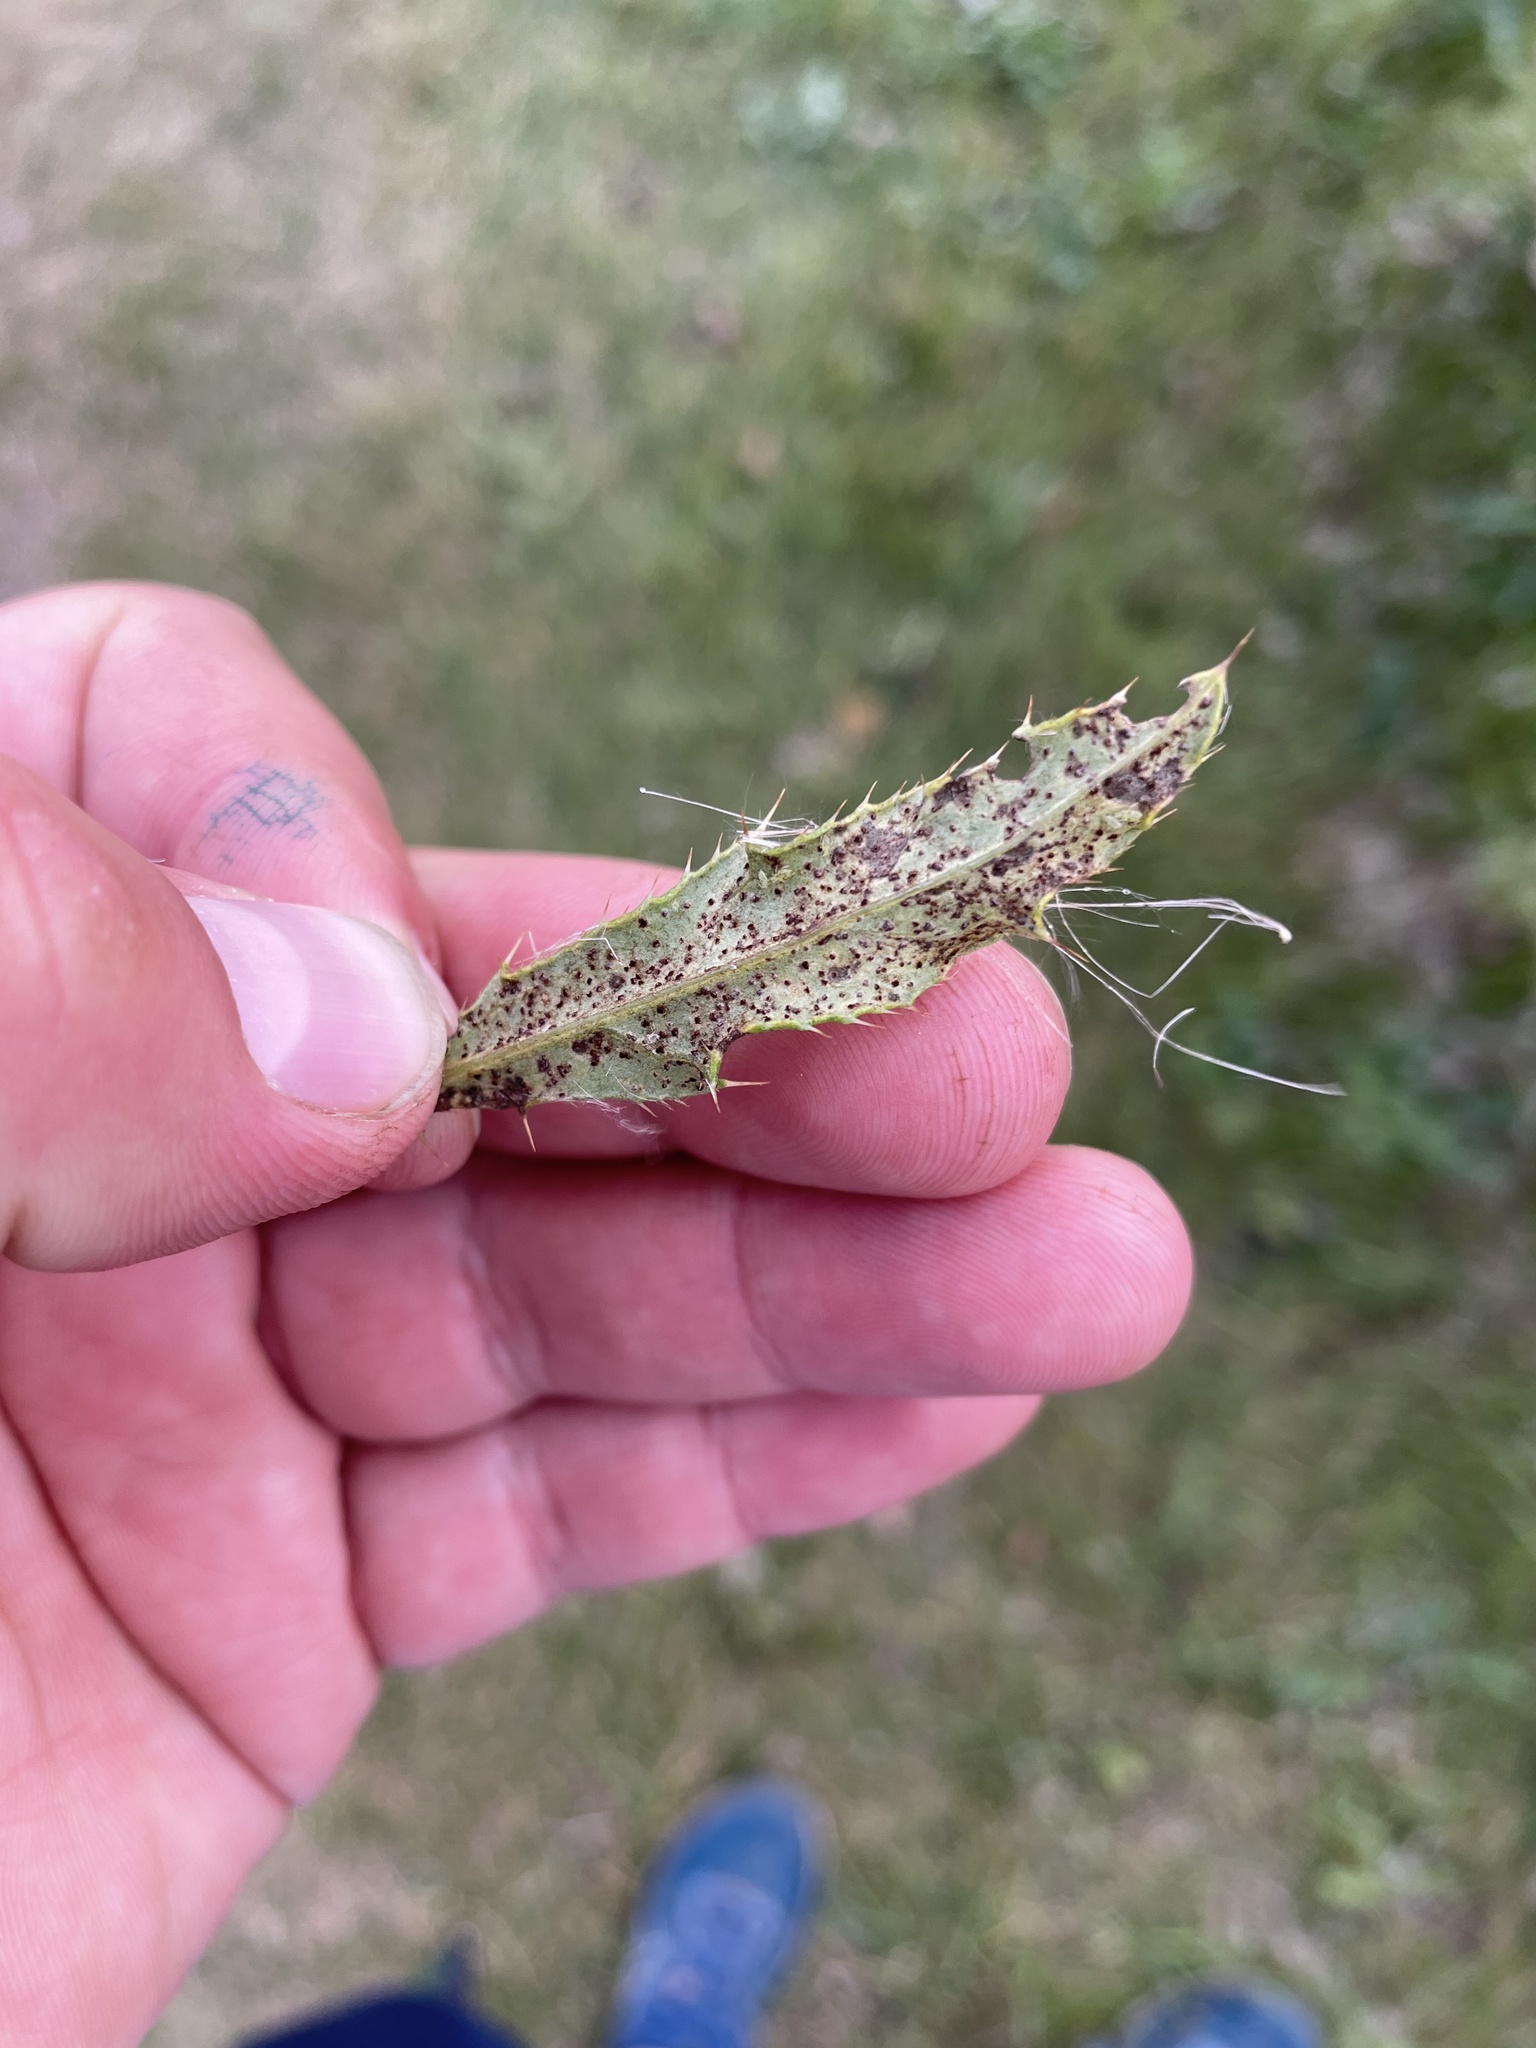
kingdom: Fungi
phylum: Basidiomycota
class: Pucciniomycetes
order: Pucciniales
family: Pucciniaceae
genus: Puccinia
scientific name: Puccinia suaveolens
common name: Thistle rust
